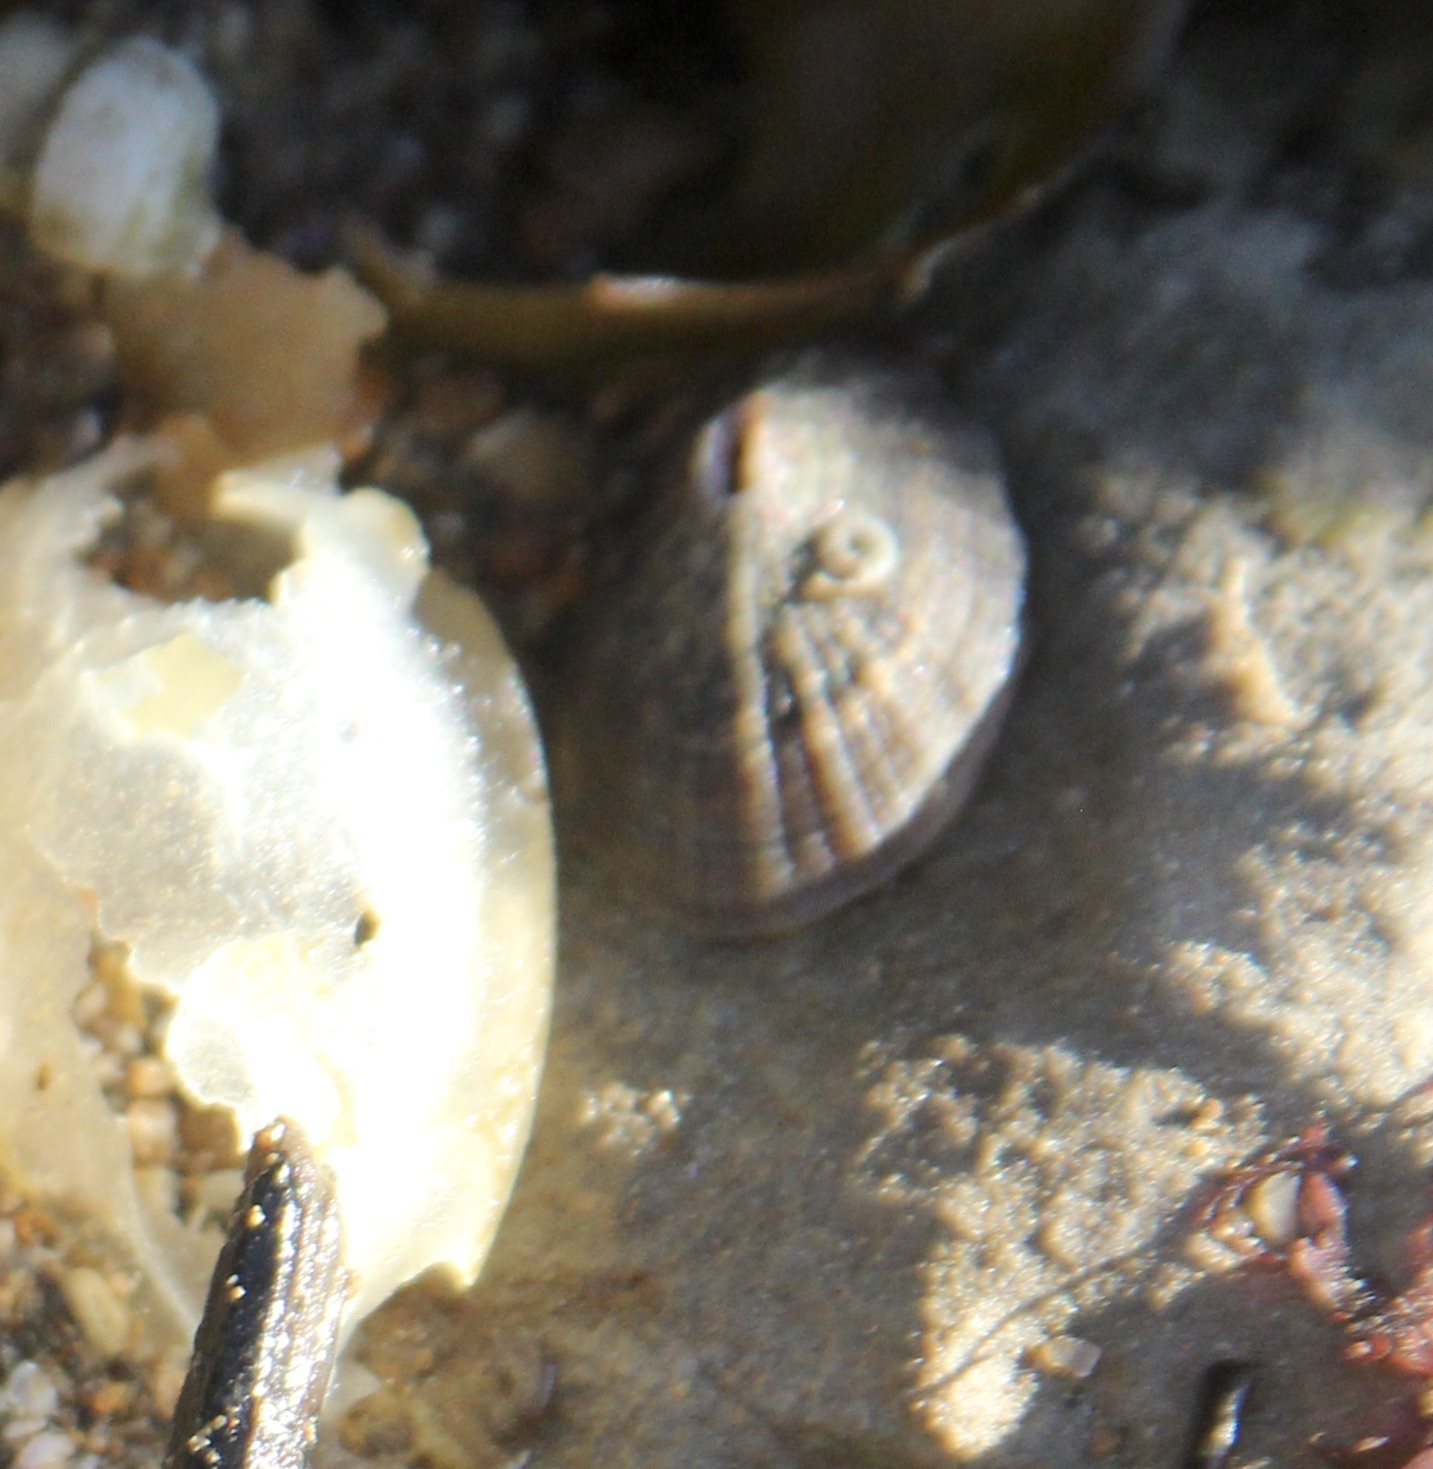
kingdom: Animalia
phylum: Mollusca
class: Gastropoda
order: Lepetellida
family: Fissurellidae
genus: Fissurella
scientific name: Fissurella volcano
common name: Volcano keyhole limpet
